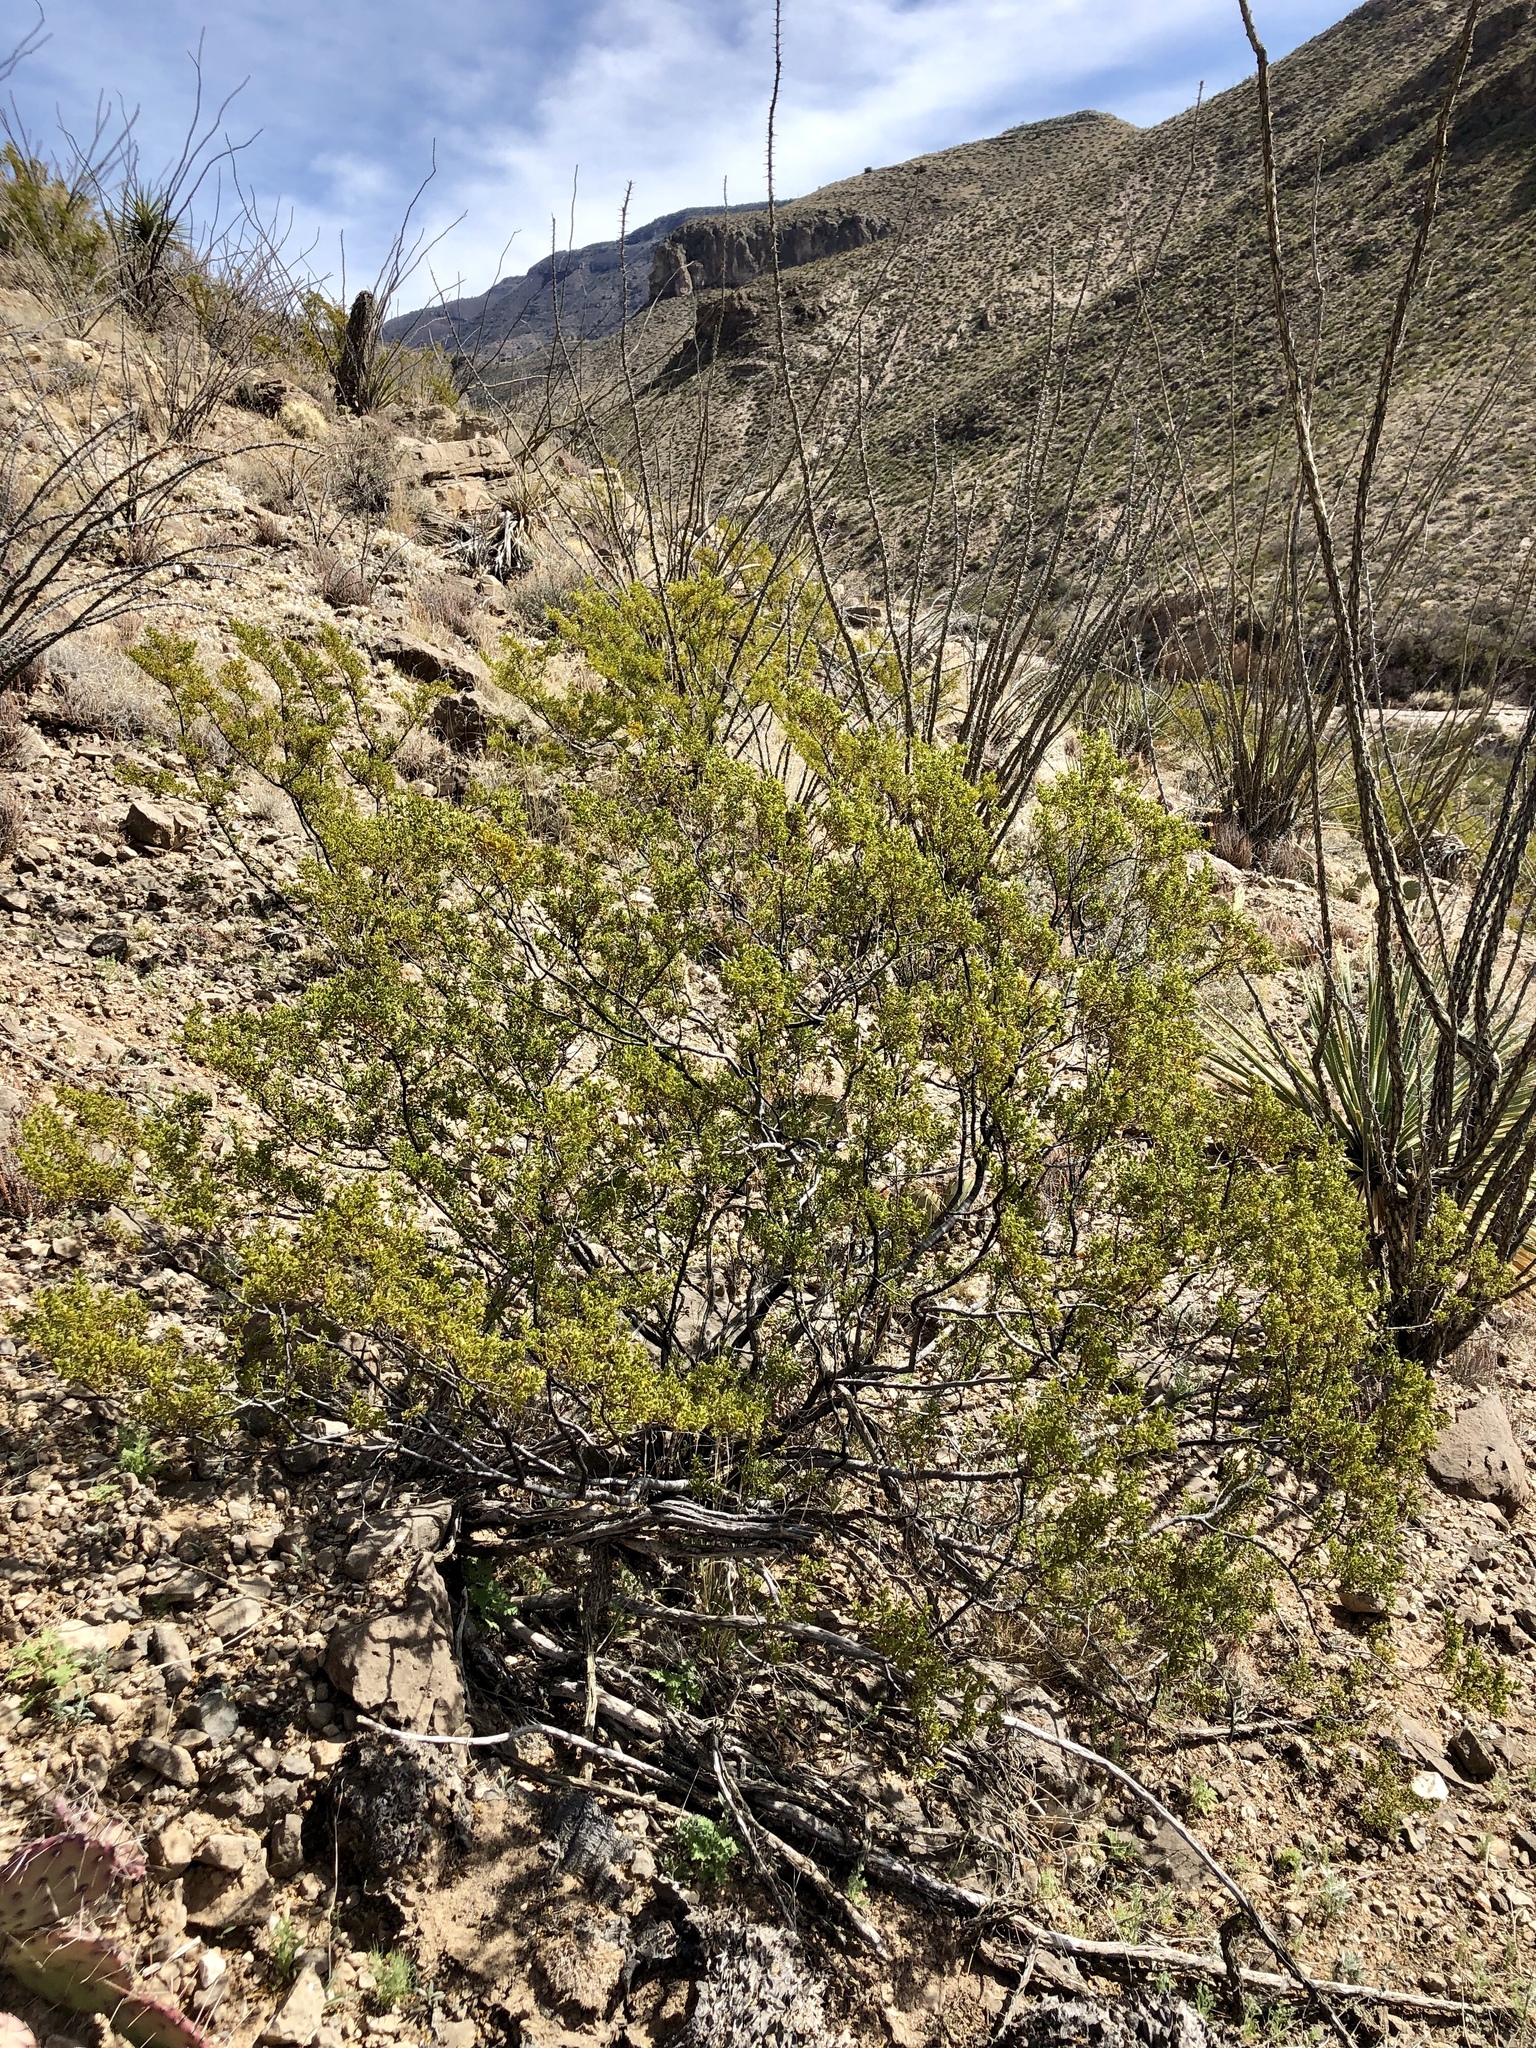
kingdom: Plantae
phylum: Tracheophyta
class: Magnoliopsida
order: Zygophyllales
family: Zygophyllaceae
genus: Larrea
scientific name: Larrea tridentata
